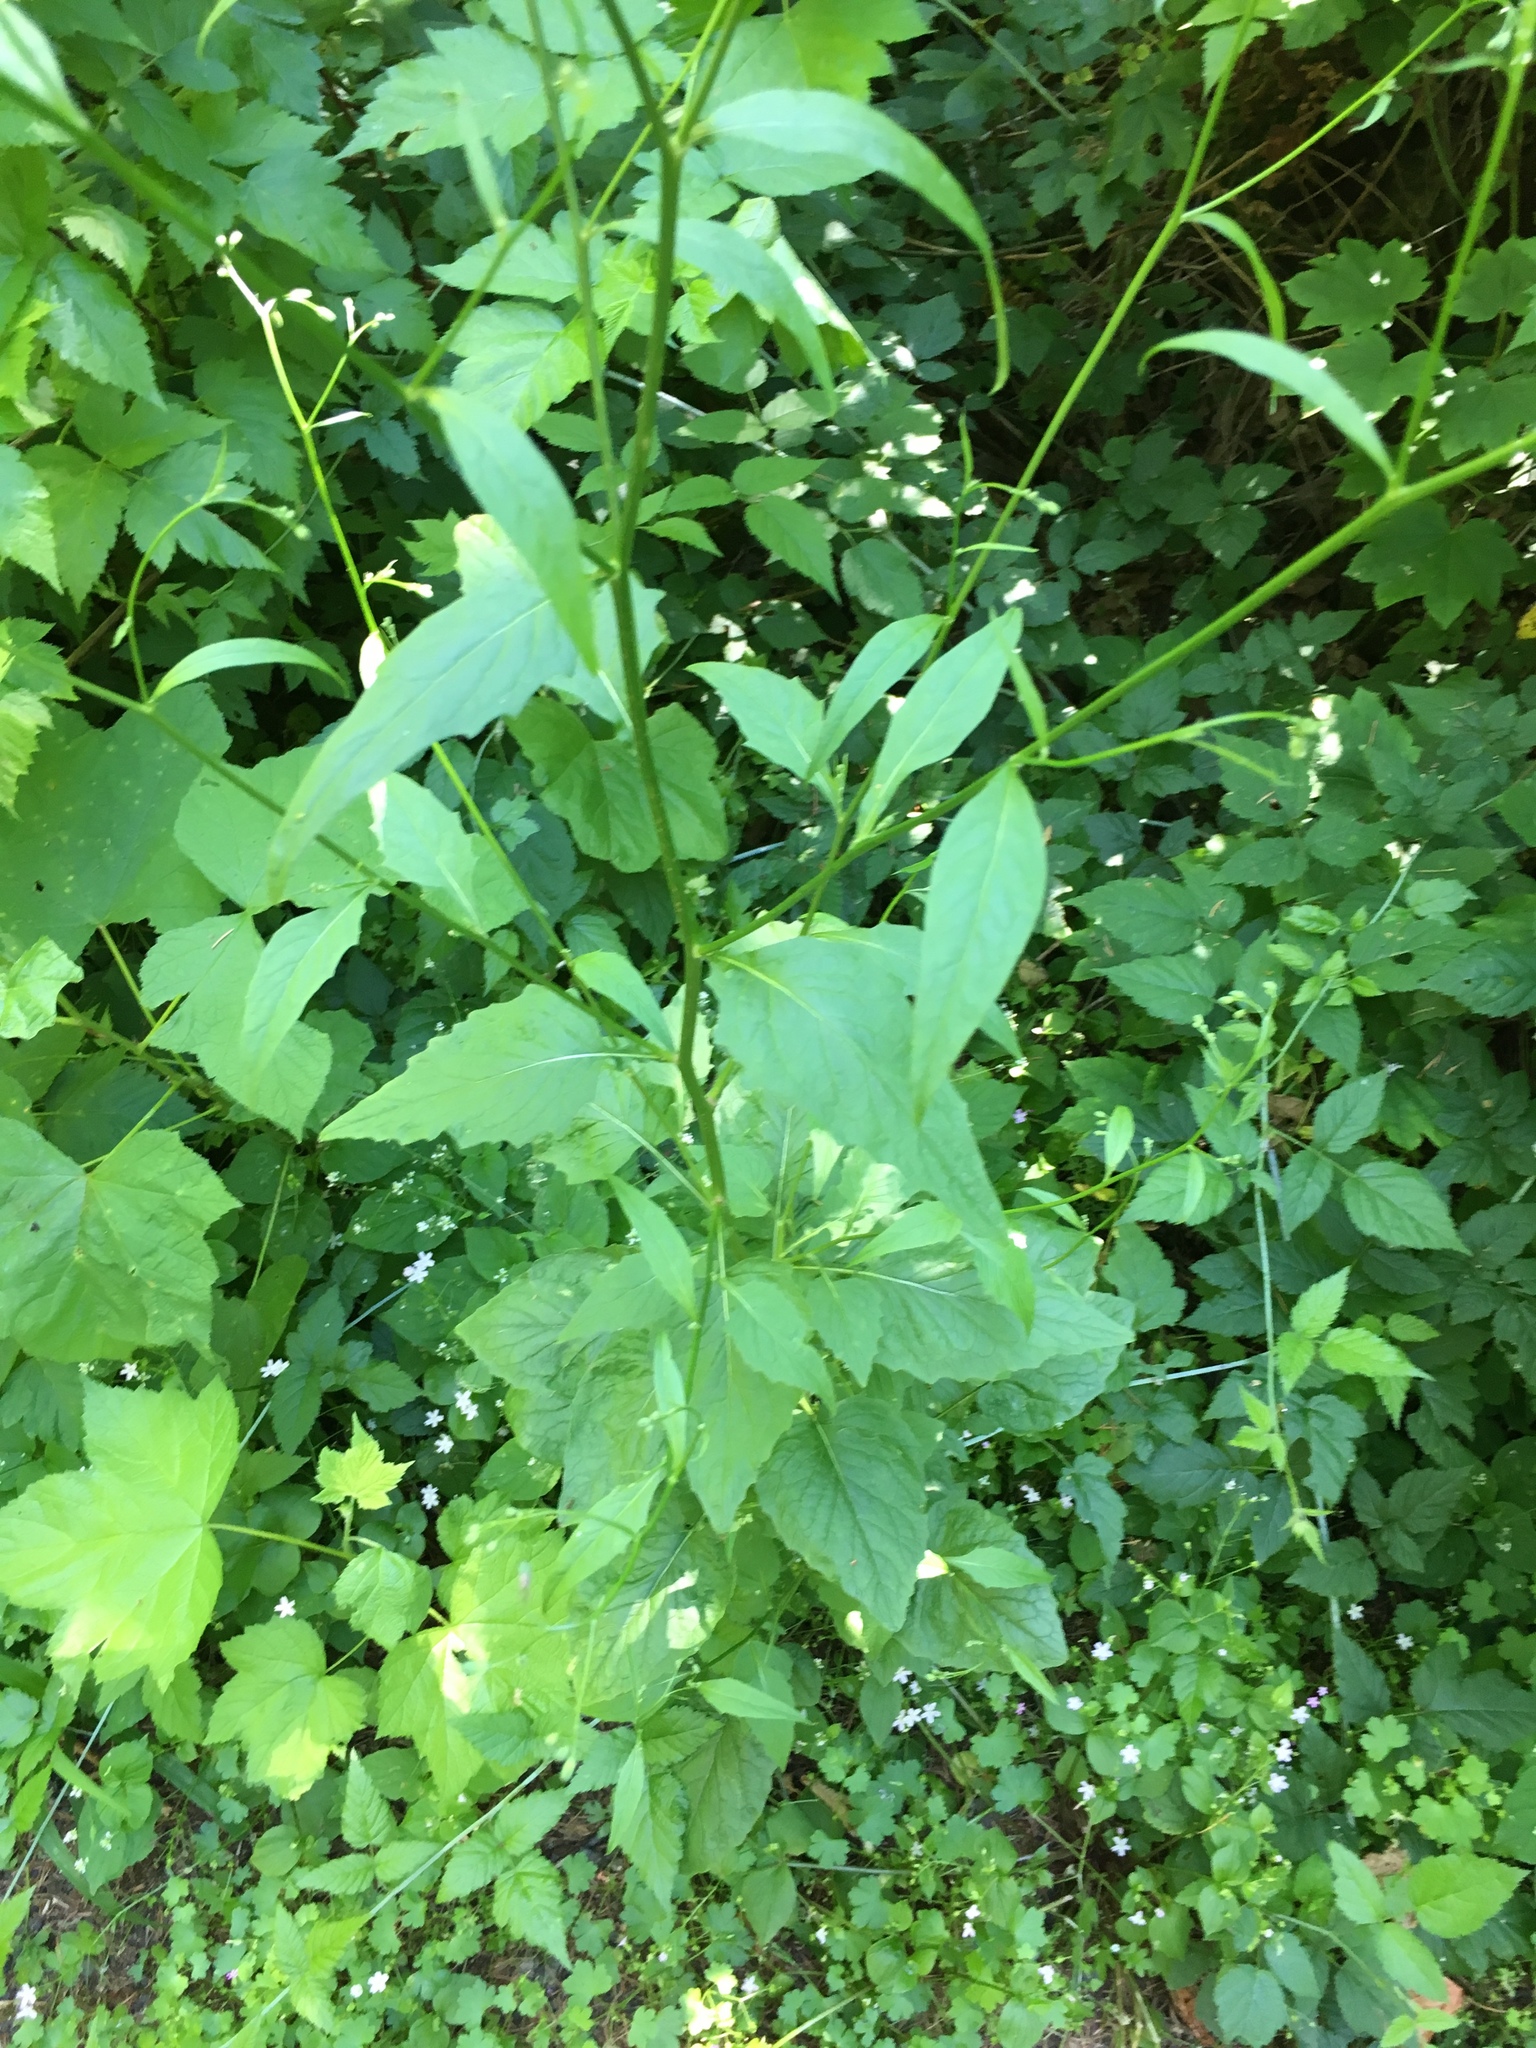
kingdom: Plantae
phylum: Tracheophyta
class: Magnoliopsida
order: Asterales
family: Asteraceae
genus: Lapsana
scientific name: Lapsana communis
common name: Nipplewort
